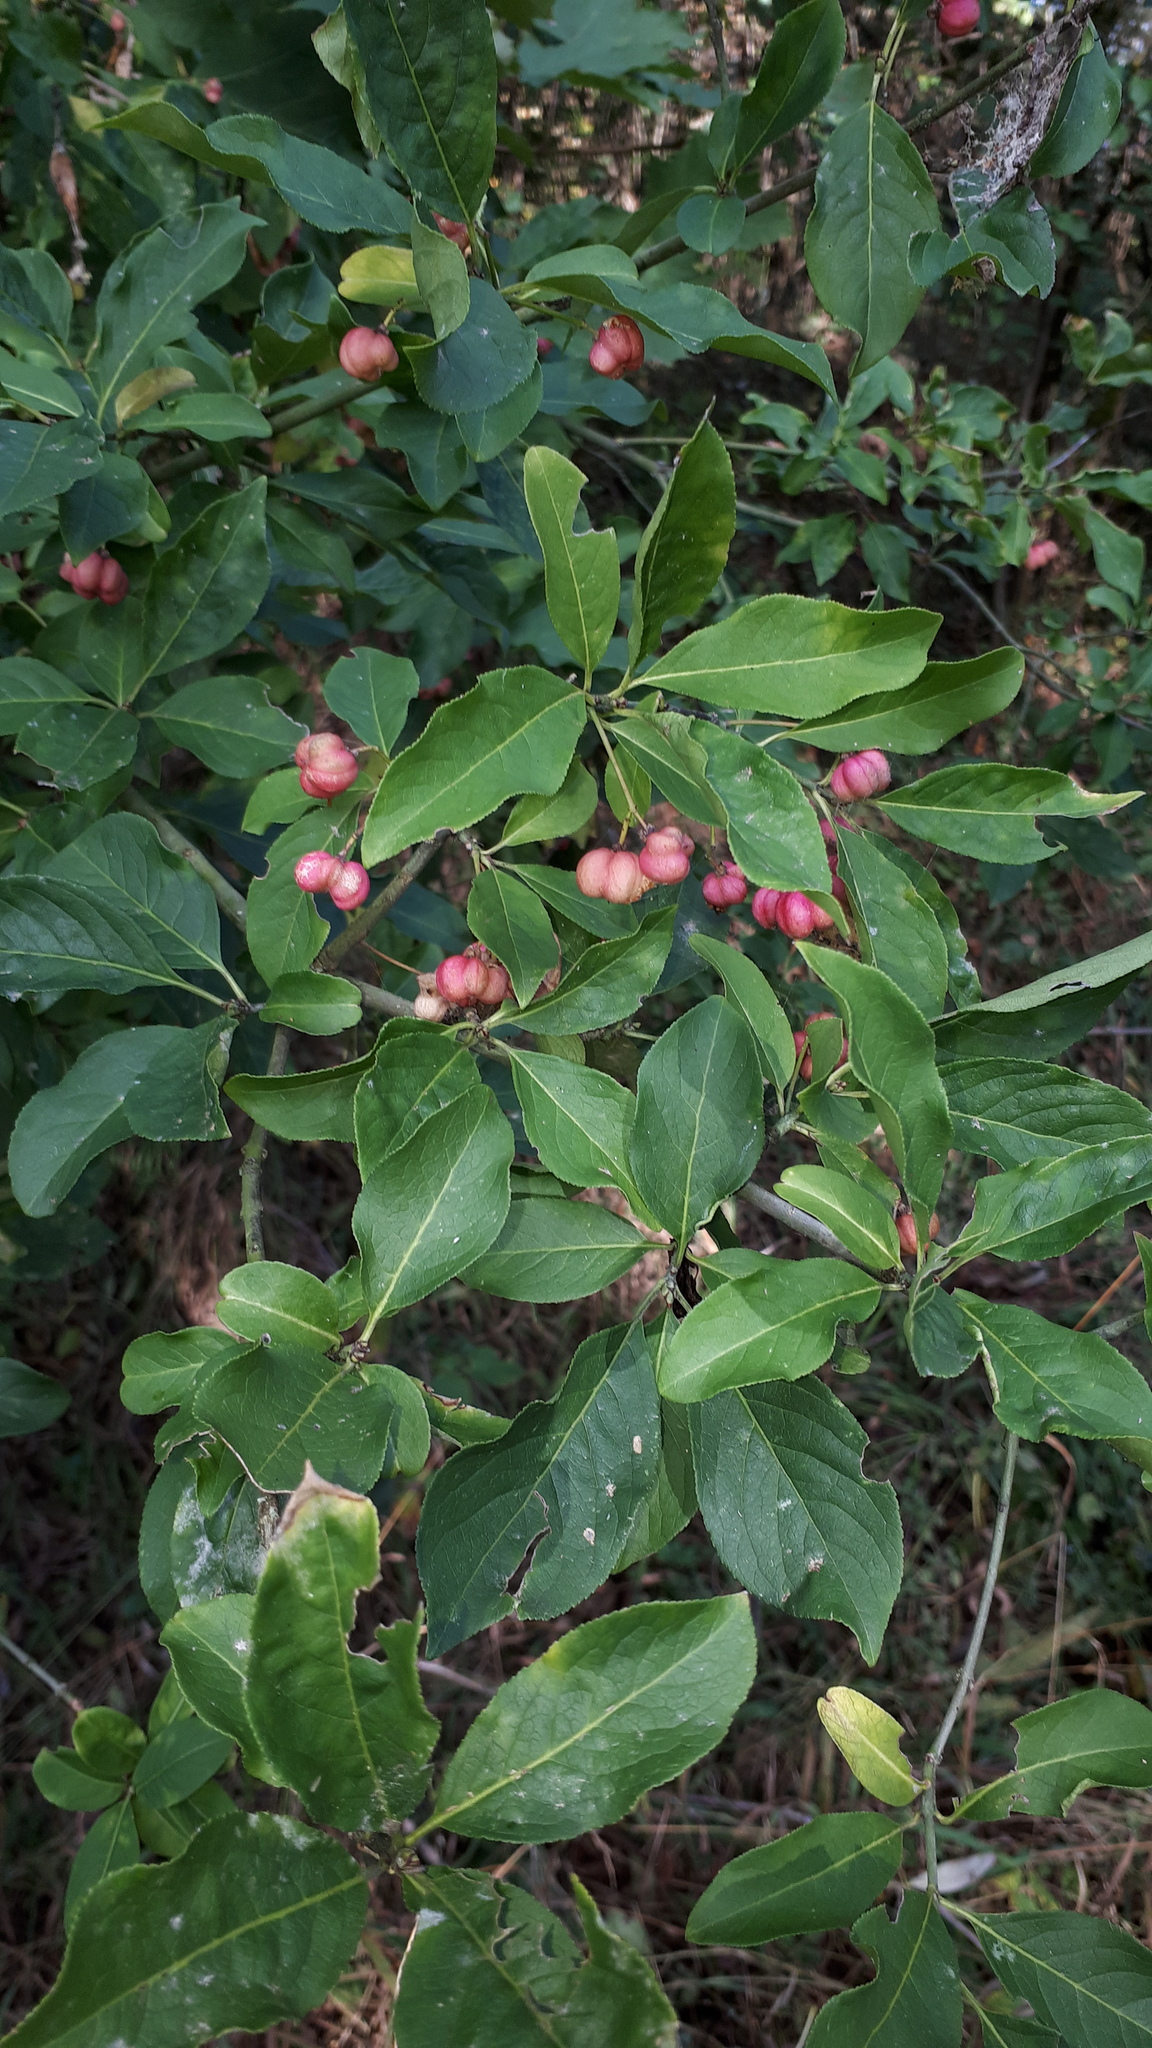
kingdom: Plantae
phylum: Tracheophyta
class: Magnoliopsida
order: Celastrales
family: Celastraceae
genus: Euonymus
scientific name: Euonymus europaeus
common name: Spindle
